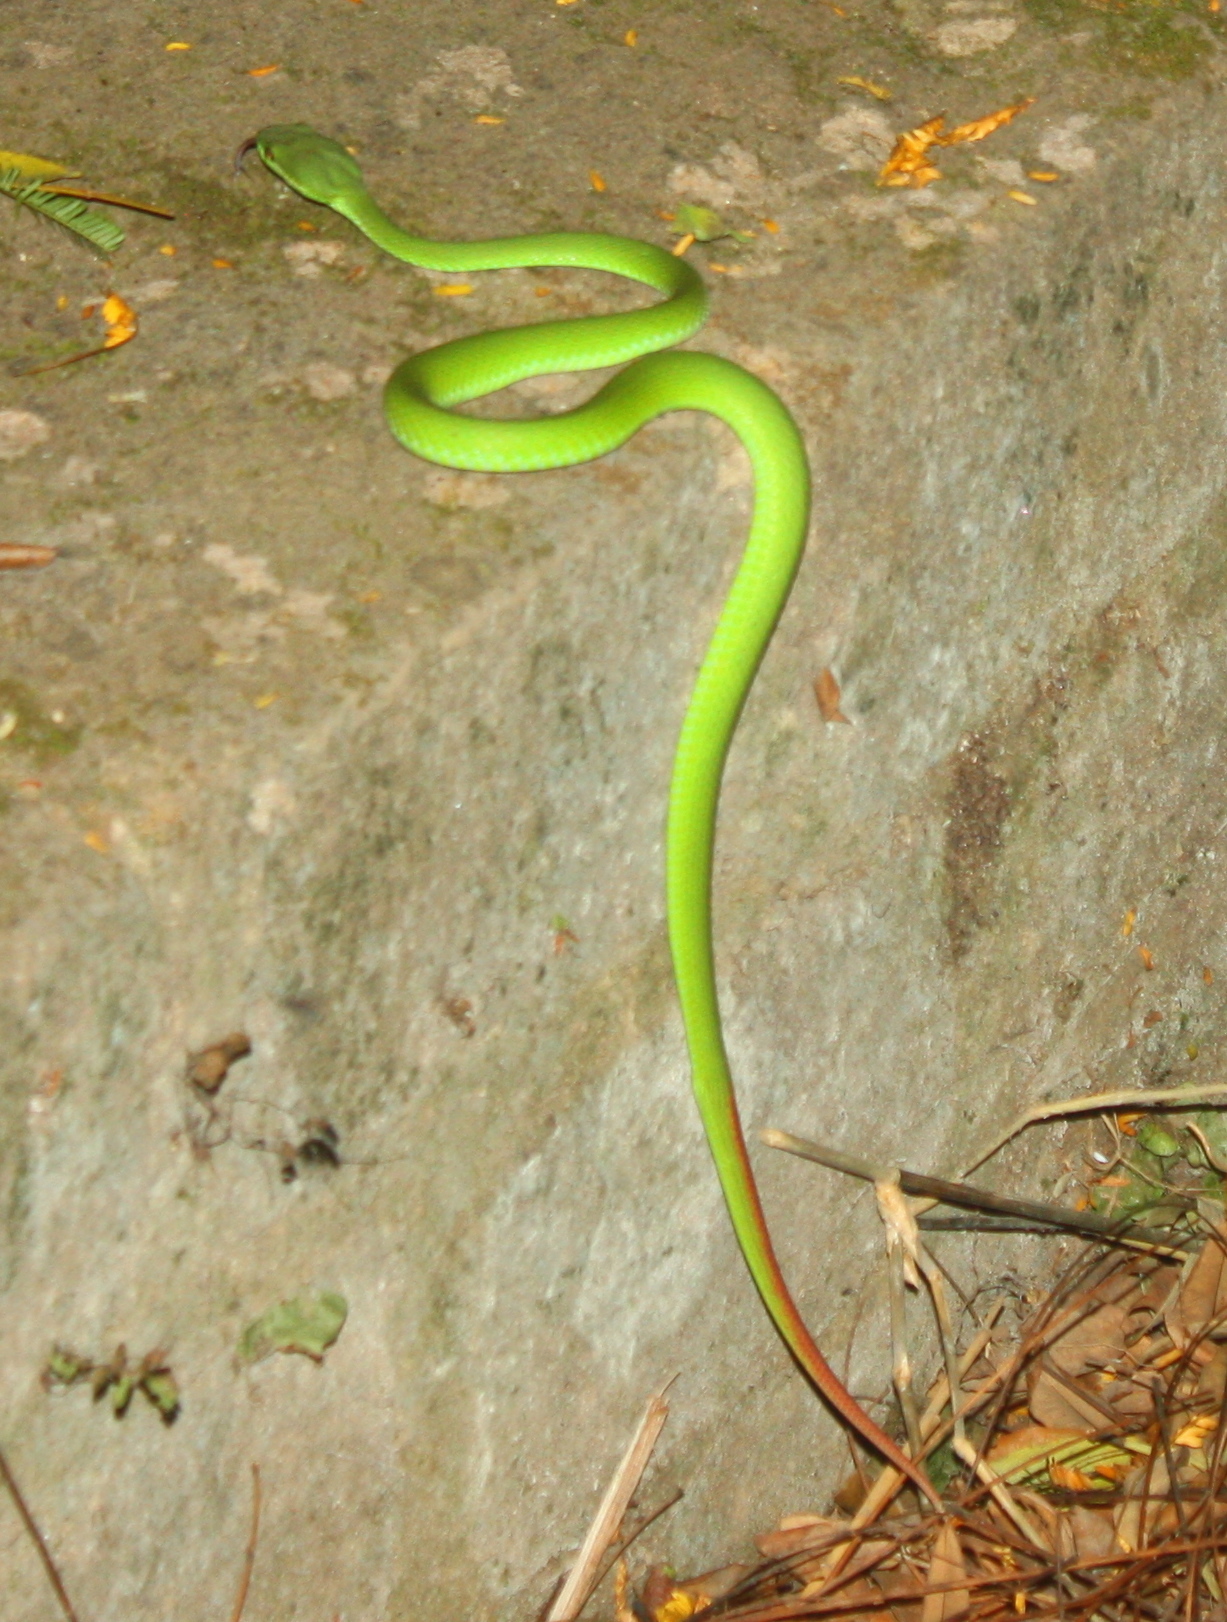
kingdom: Animalia
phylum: Chordata
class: Squamata
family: Viperidae
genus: Trimeresurus
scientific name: Trimeresurus insularis
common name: White-lipped island pitviper
